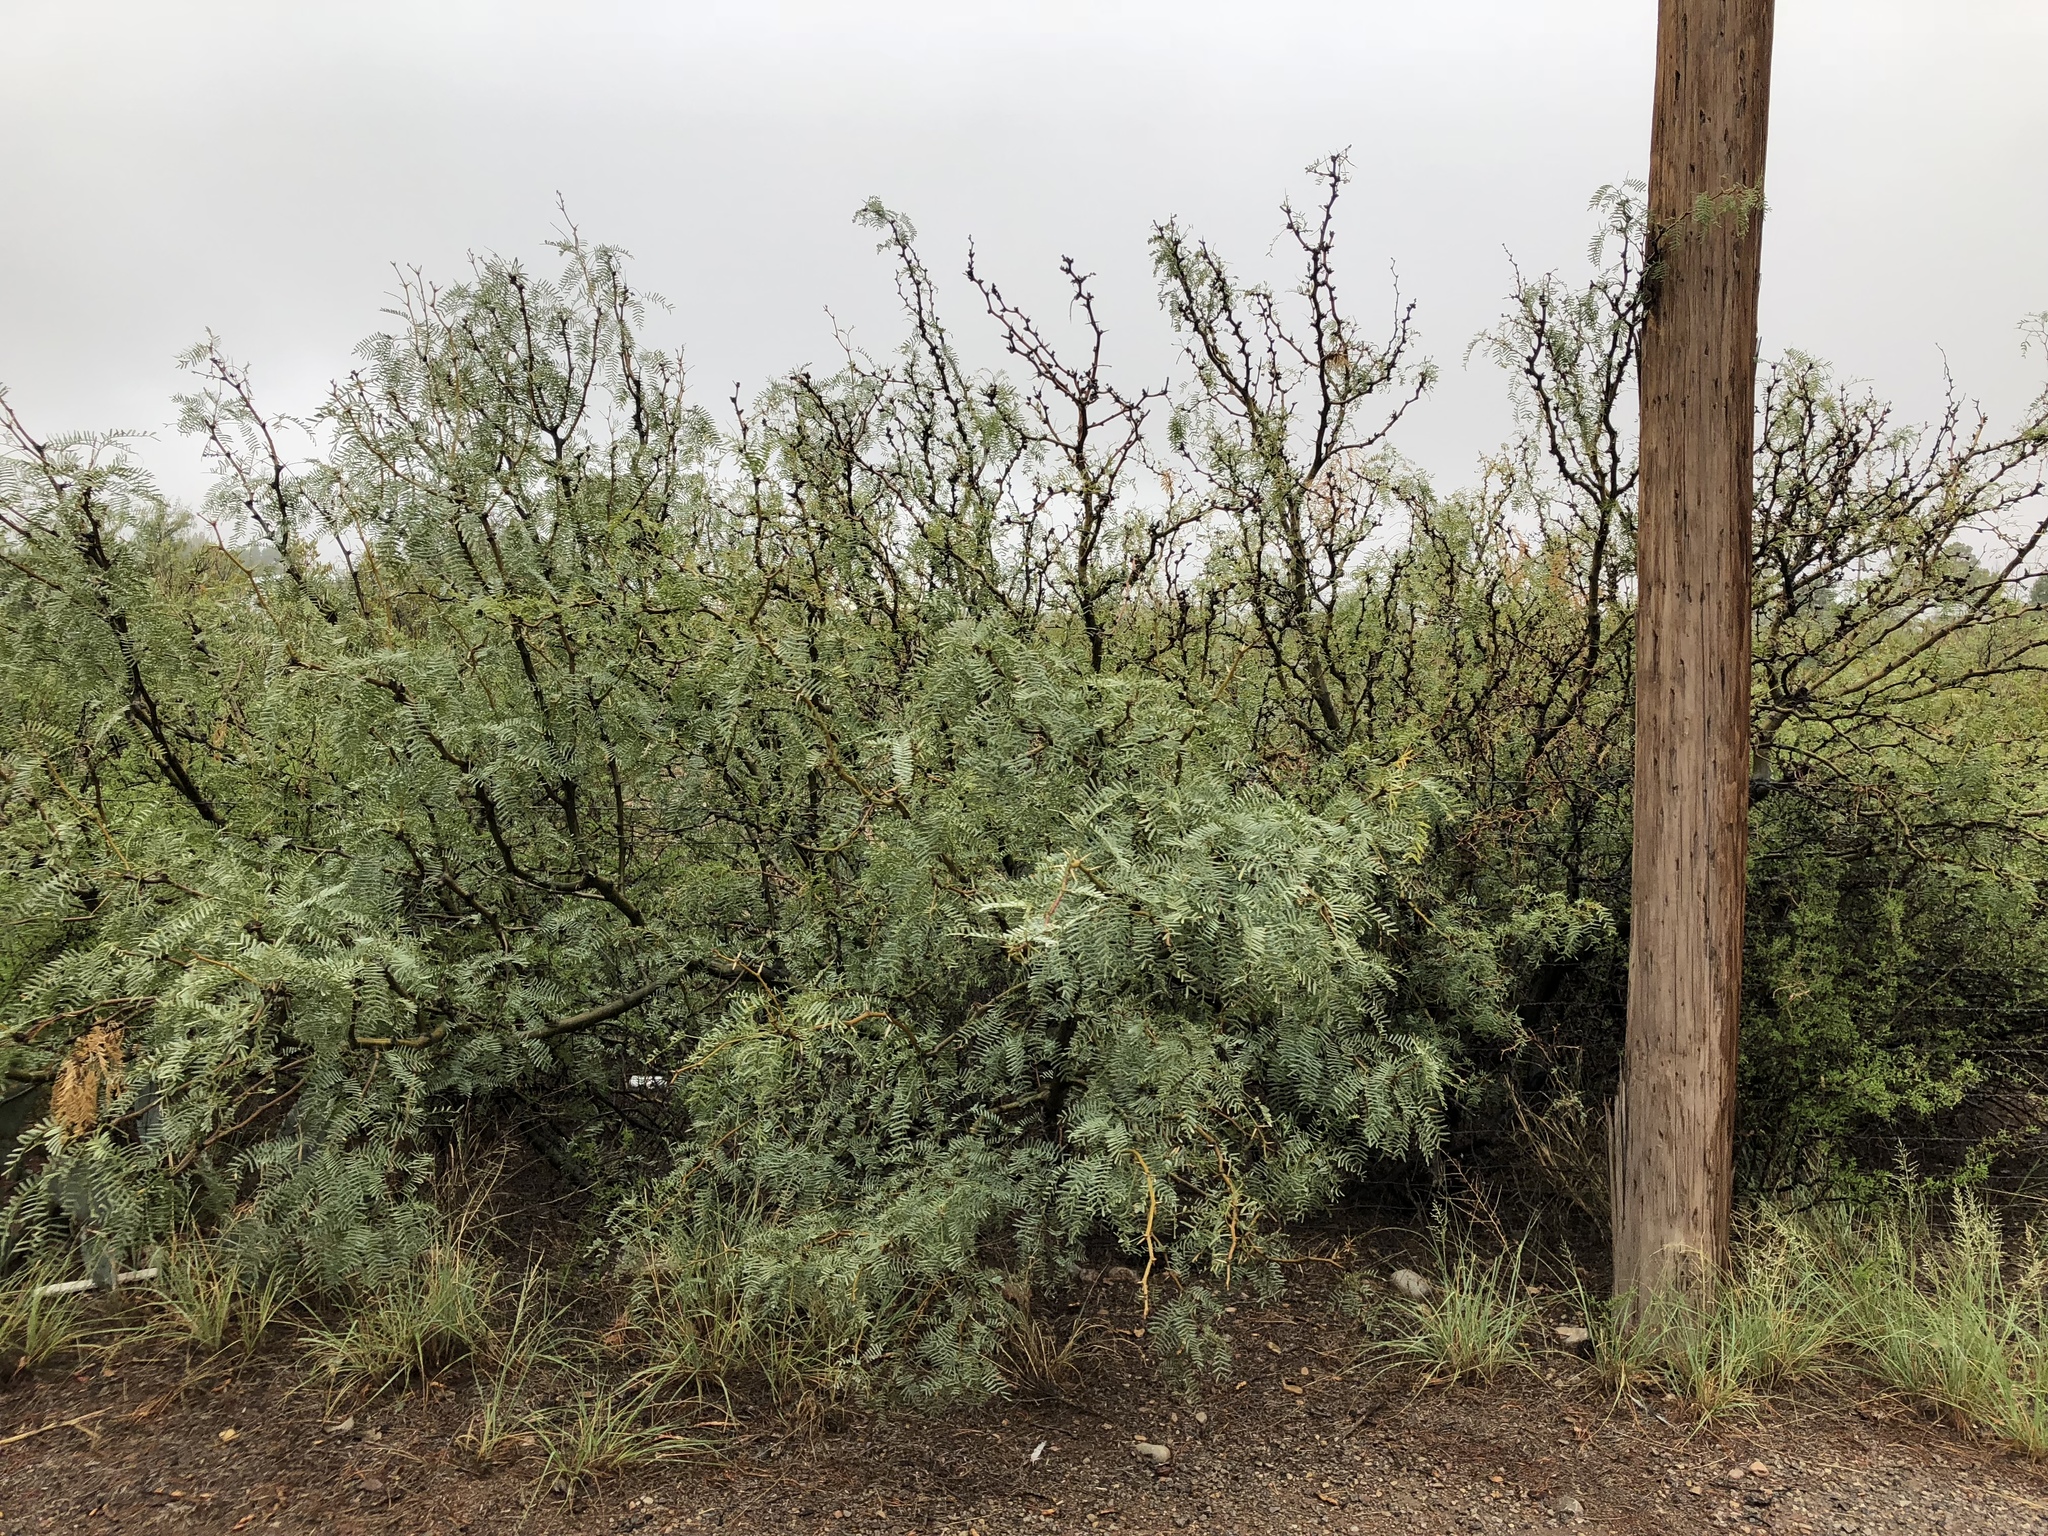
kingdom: Plantae
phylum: Tracheophyta
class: Magnoliopsida
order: Fabales
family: Fabaceae
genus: Prosopis
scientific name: Prosopis glandulosa
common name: Honey mesquite
